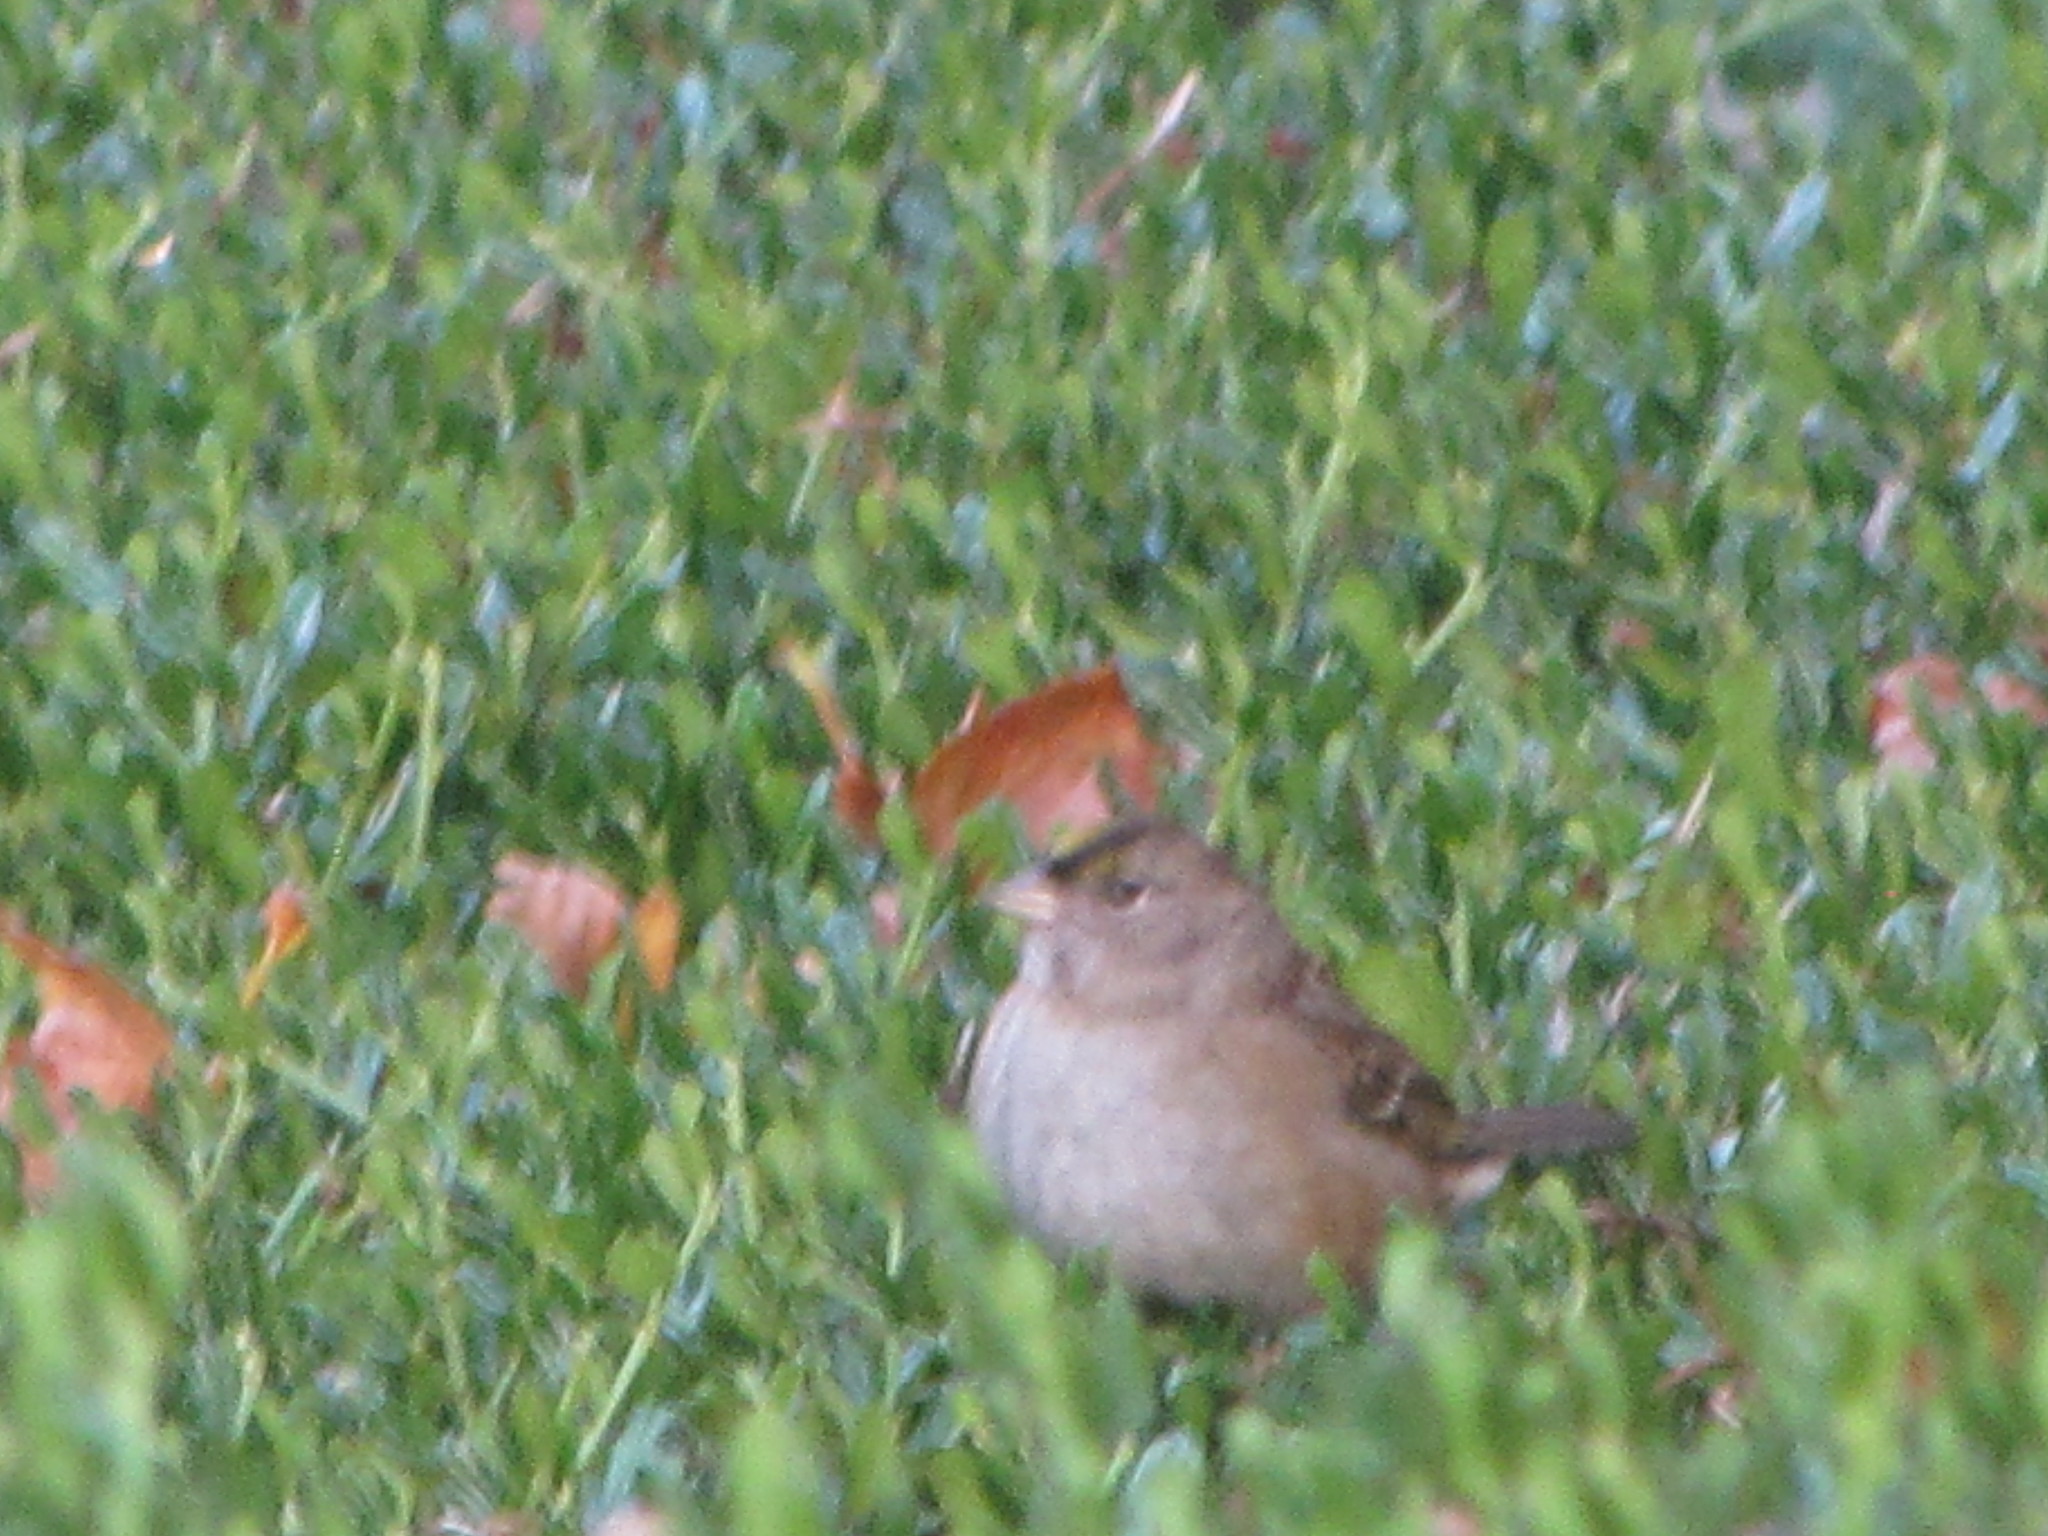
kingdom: Animalia
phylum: Chordata
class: Aves
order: Passeriformes
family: Passerellidae
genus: Zonotrichia
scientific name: Zonotrichia atricapilla
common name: Golden-crowned sparrow
